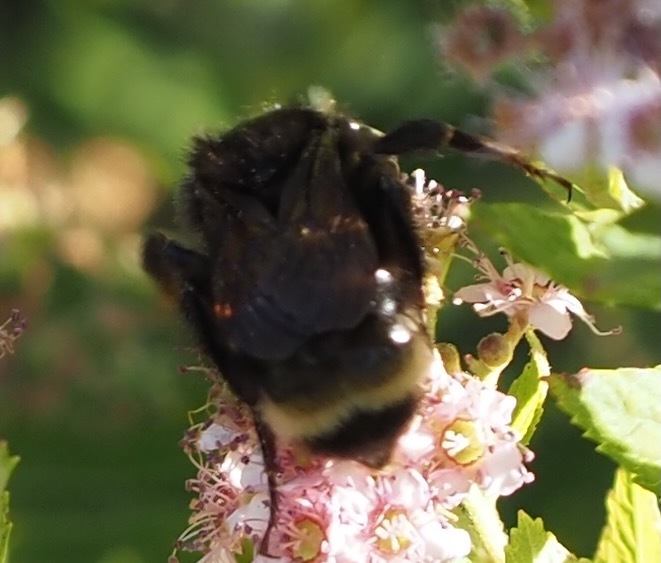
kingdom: Animalia
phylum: Arthropoda
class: Insecta
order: Hymenoptera
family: Apidae
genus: Bombus
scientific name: Bombus californicus
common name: California bumble bee
